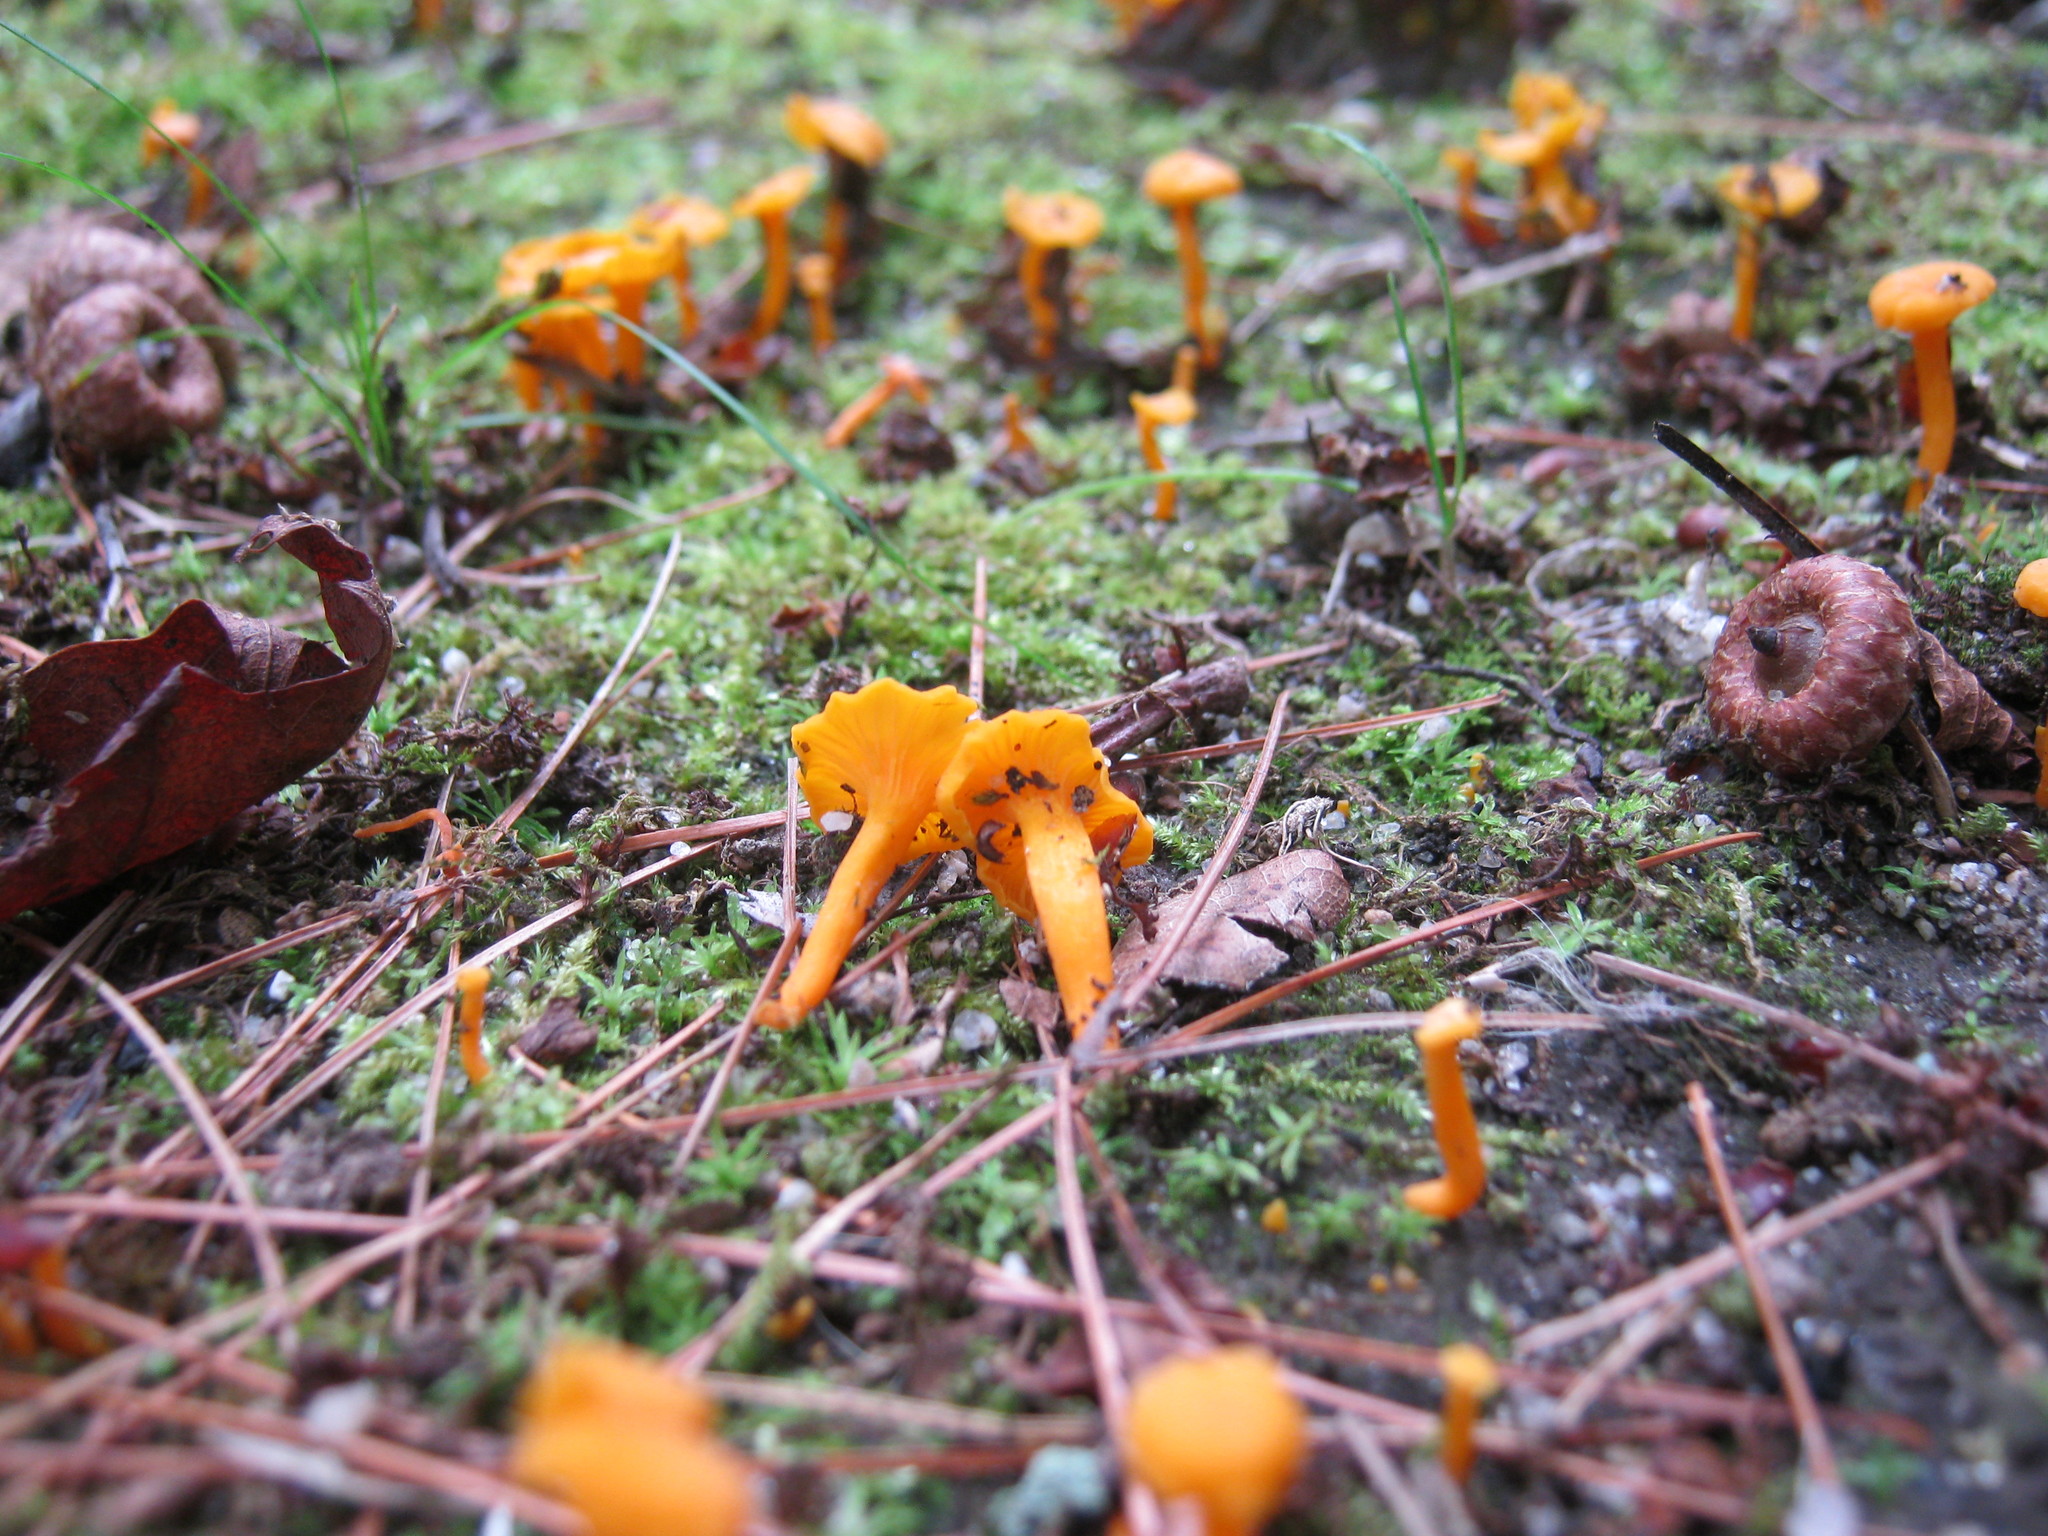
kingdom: Fungi
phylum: Basidiomycota
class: Agaricomycetes
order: Cantharellales
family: Hydnaceae
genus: Cantharellus
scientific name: Cantharellus minor
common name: Small chanterelle
